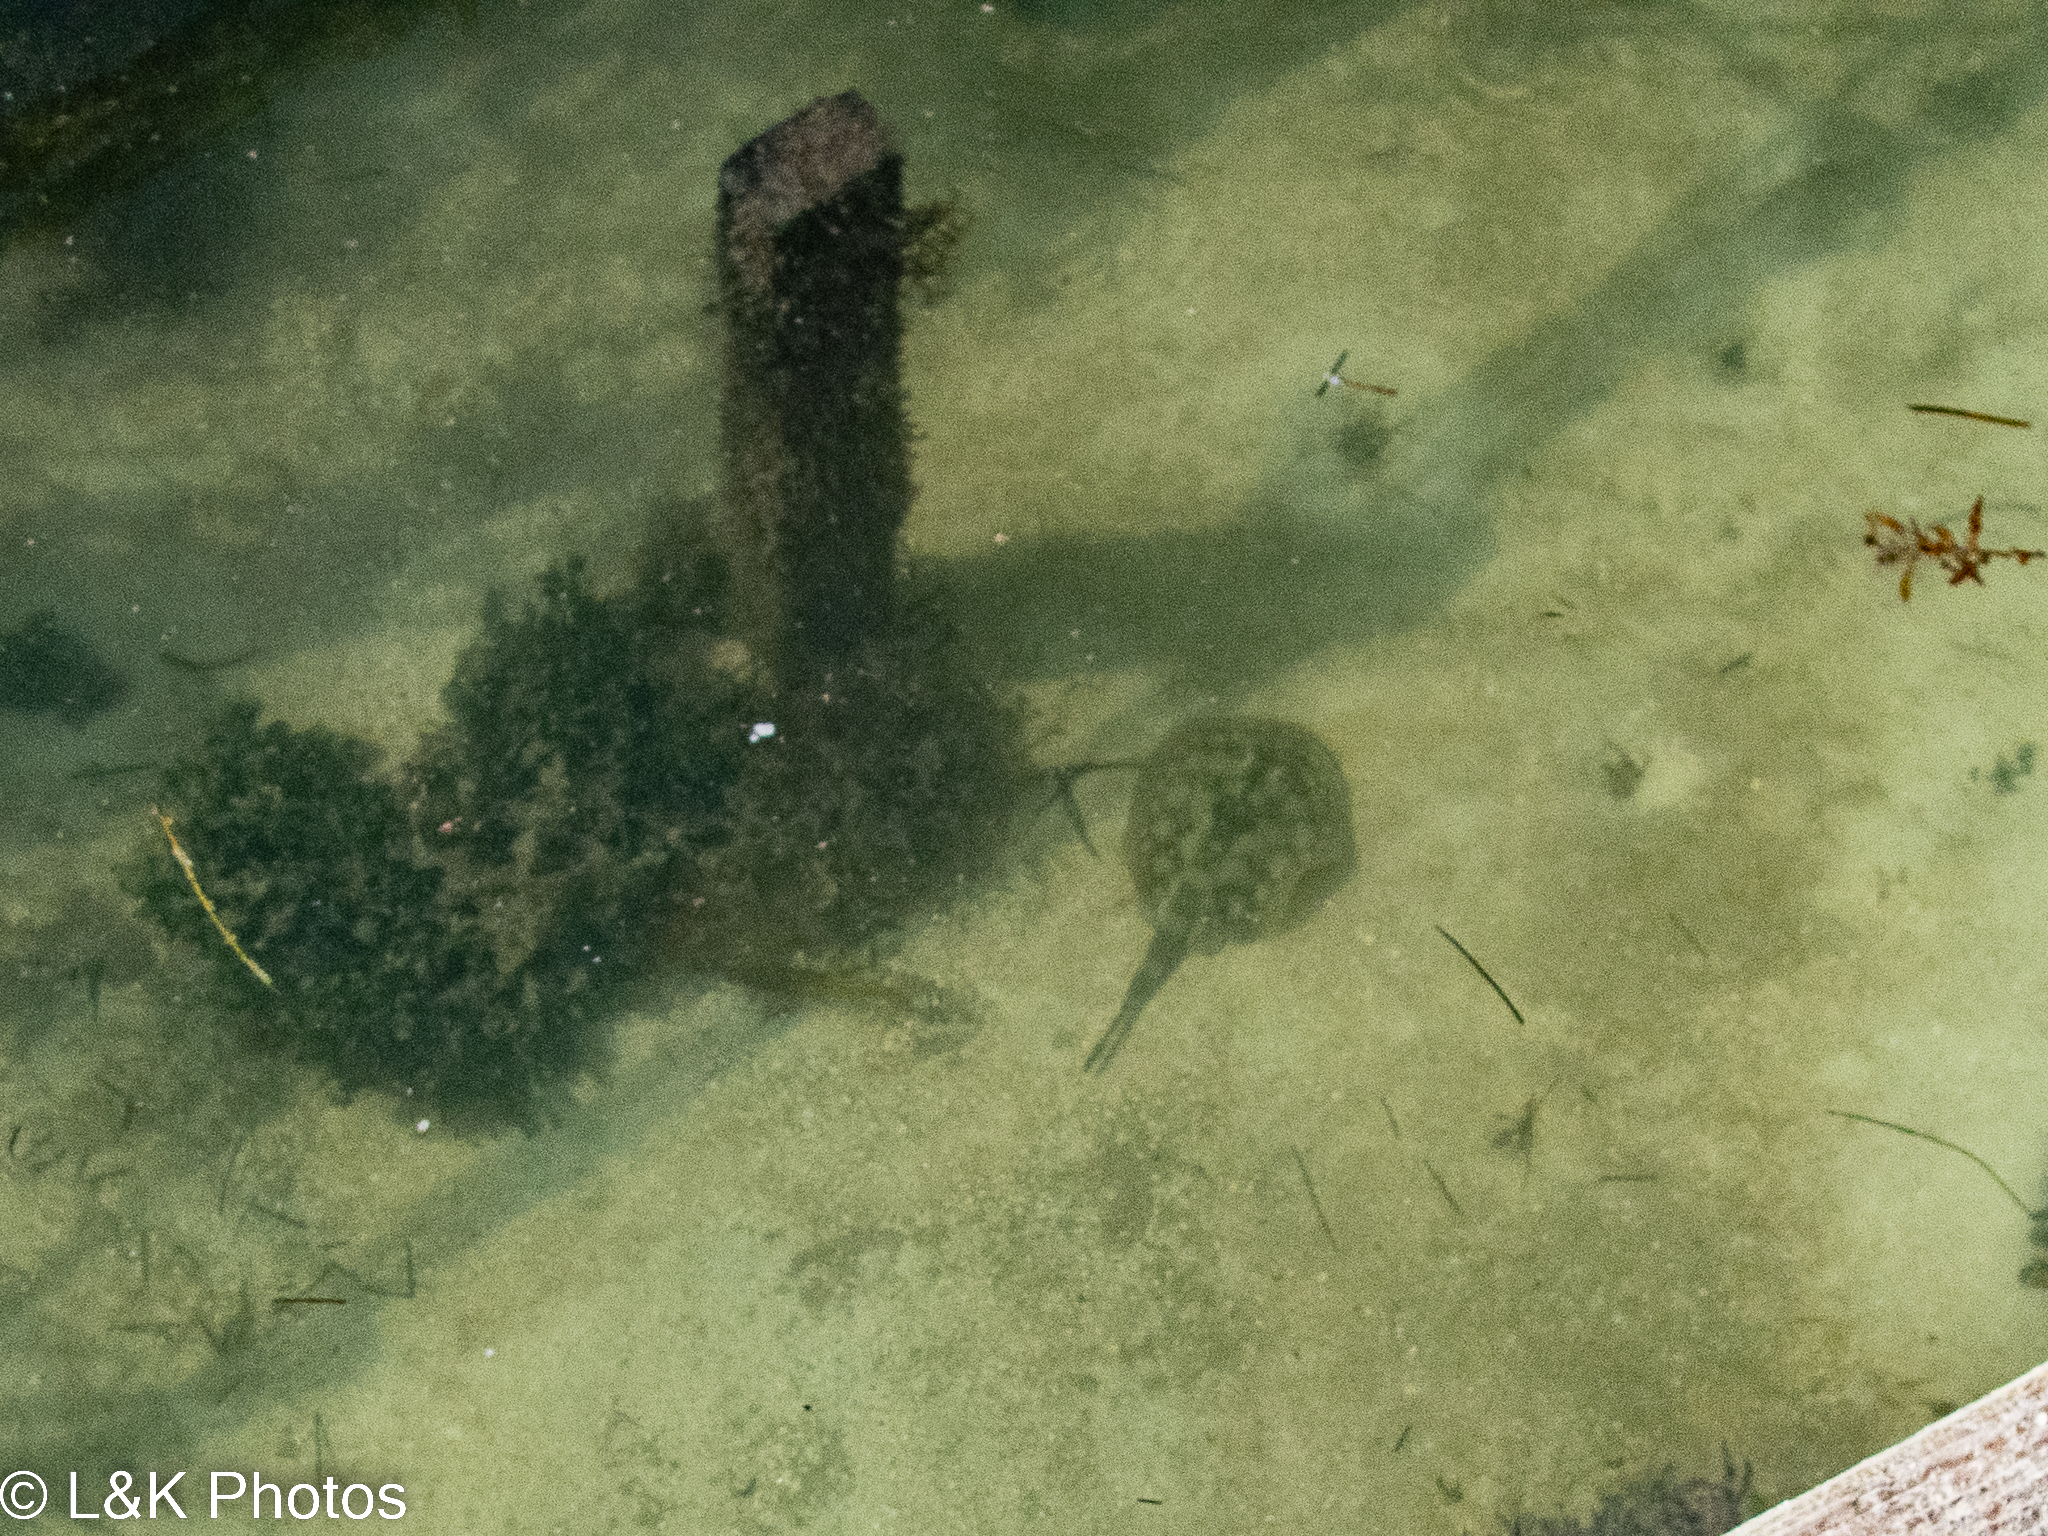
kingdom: Animalia
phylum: Chordata
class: Elasmobranchii
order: Myliobatiformes
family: Urotrygonidae
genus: Urobatis
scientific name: Urobatis jamaicensis
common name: Yellow stingray
